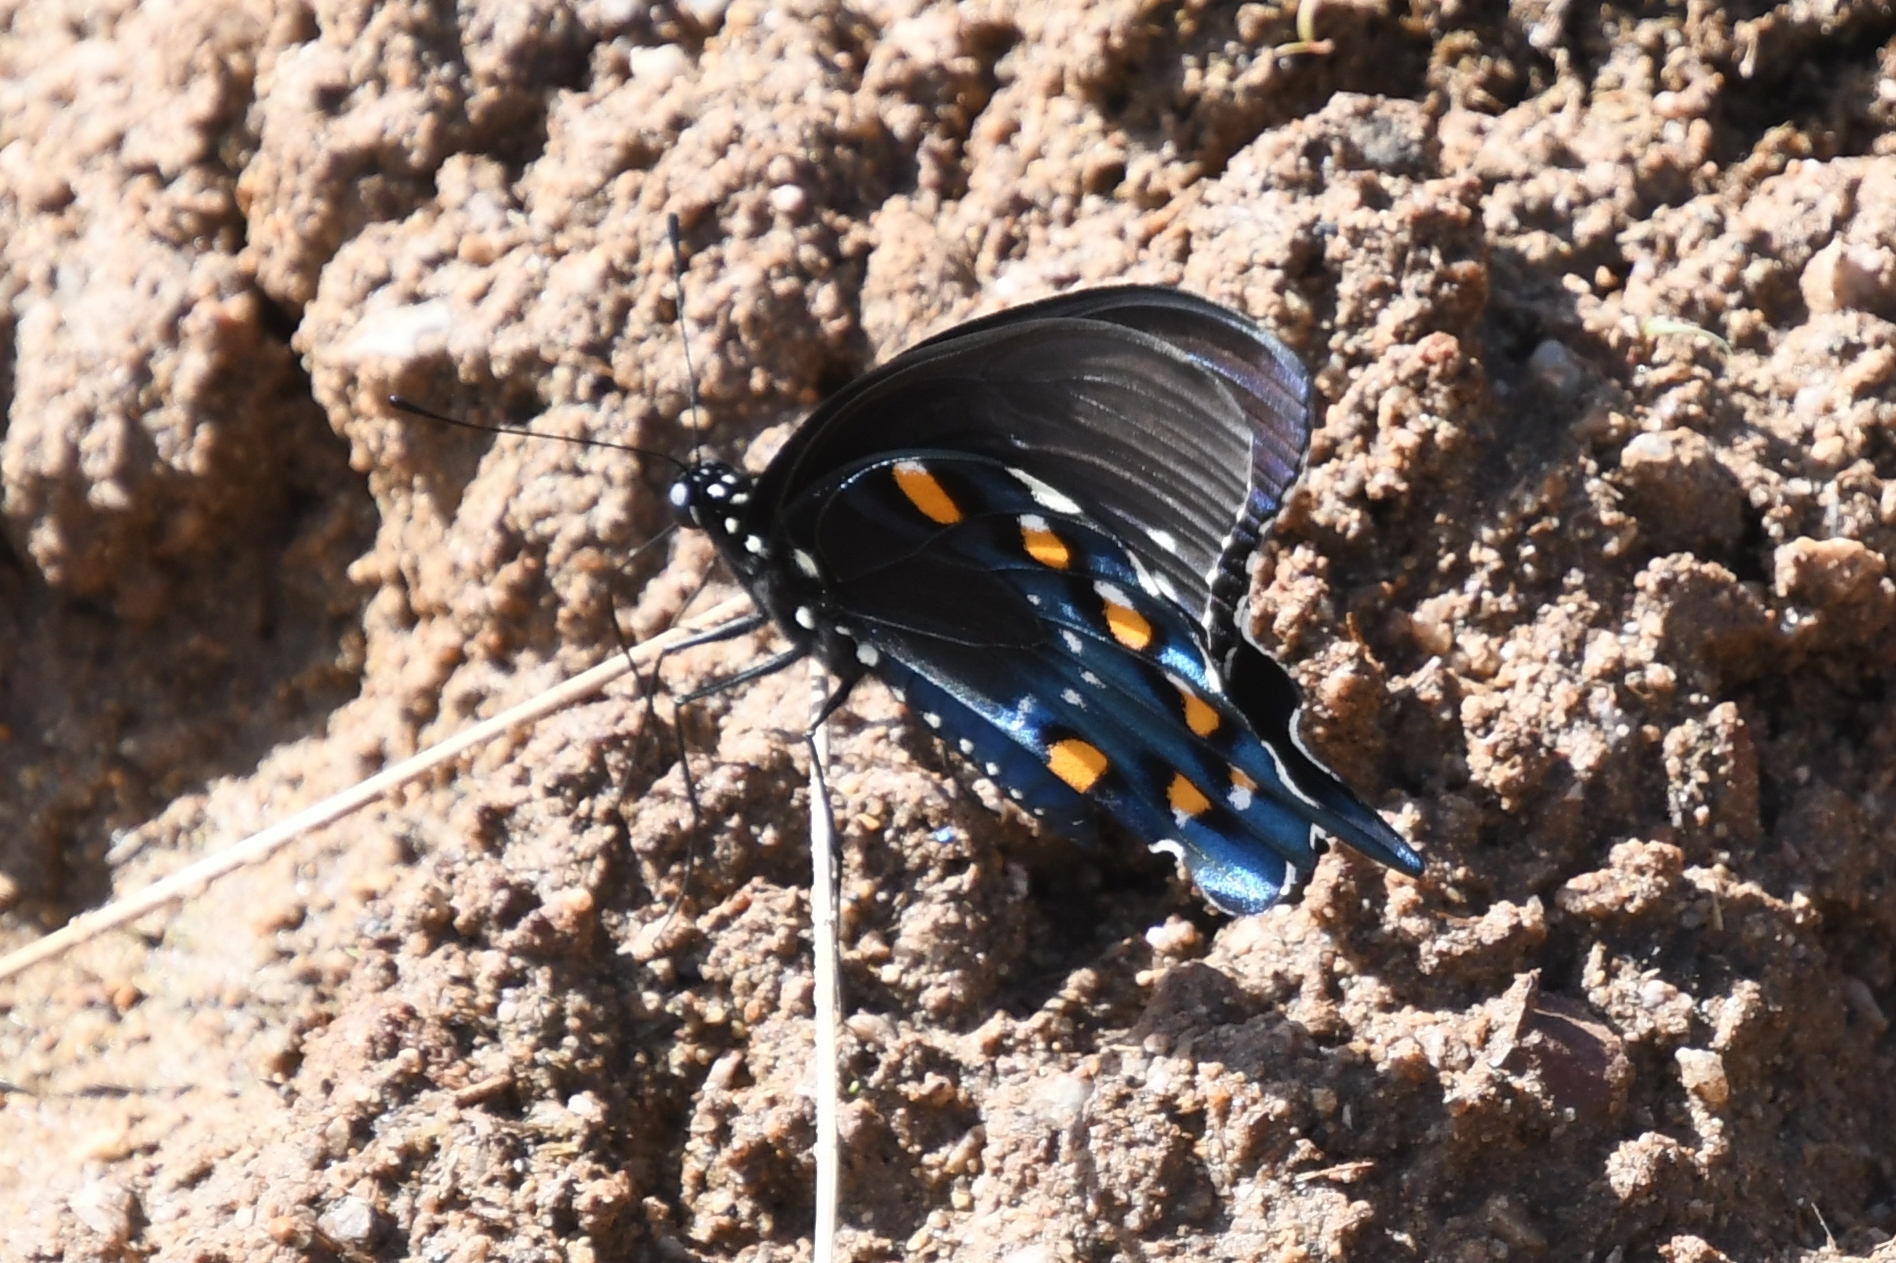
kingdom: Animalia
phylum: Arthropoda
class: Insecta
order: Lepidoptera
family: Papilionidae
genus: Battus
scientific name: Battus philenor
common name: Pipevine swallowtail
